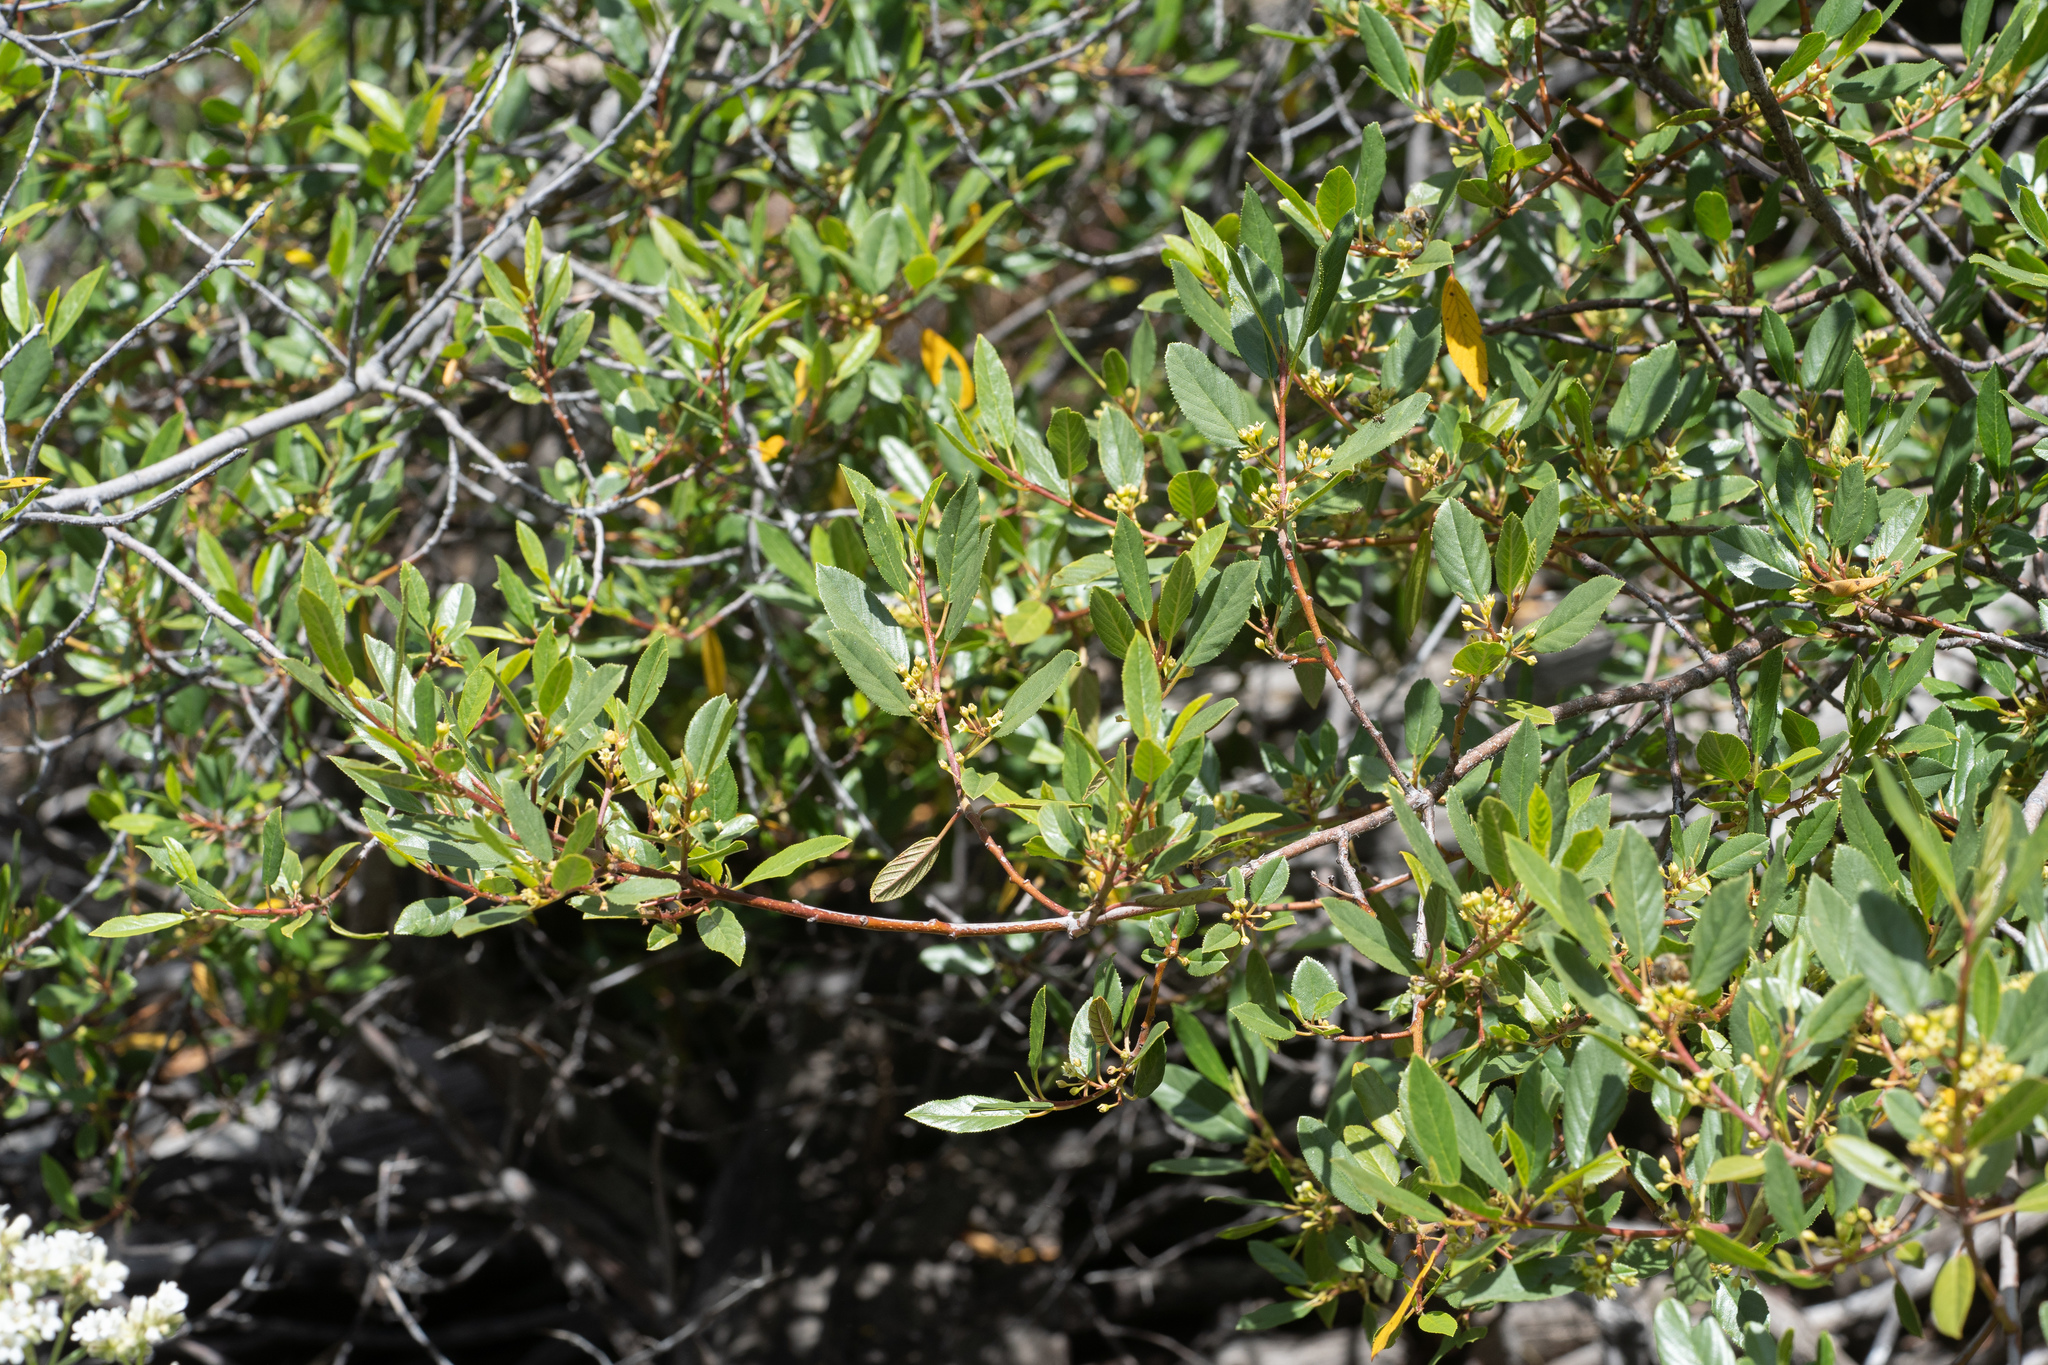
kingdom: Plantae
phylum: Tracheophyta
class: Magnoliopsida
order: Rosales
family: Rhamnaceae
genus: Frangula
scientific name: Frangula californica
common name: California buckthorn
